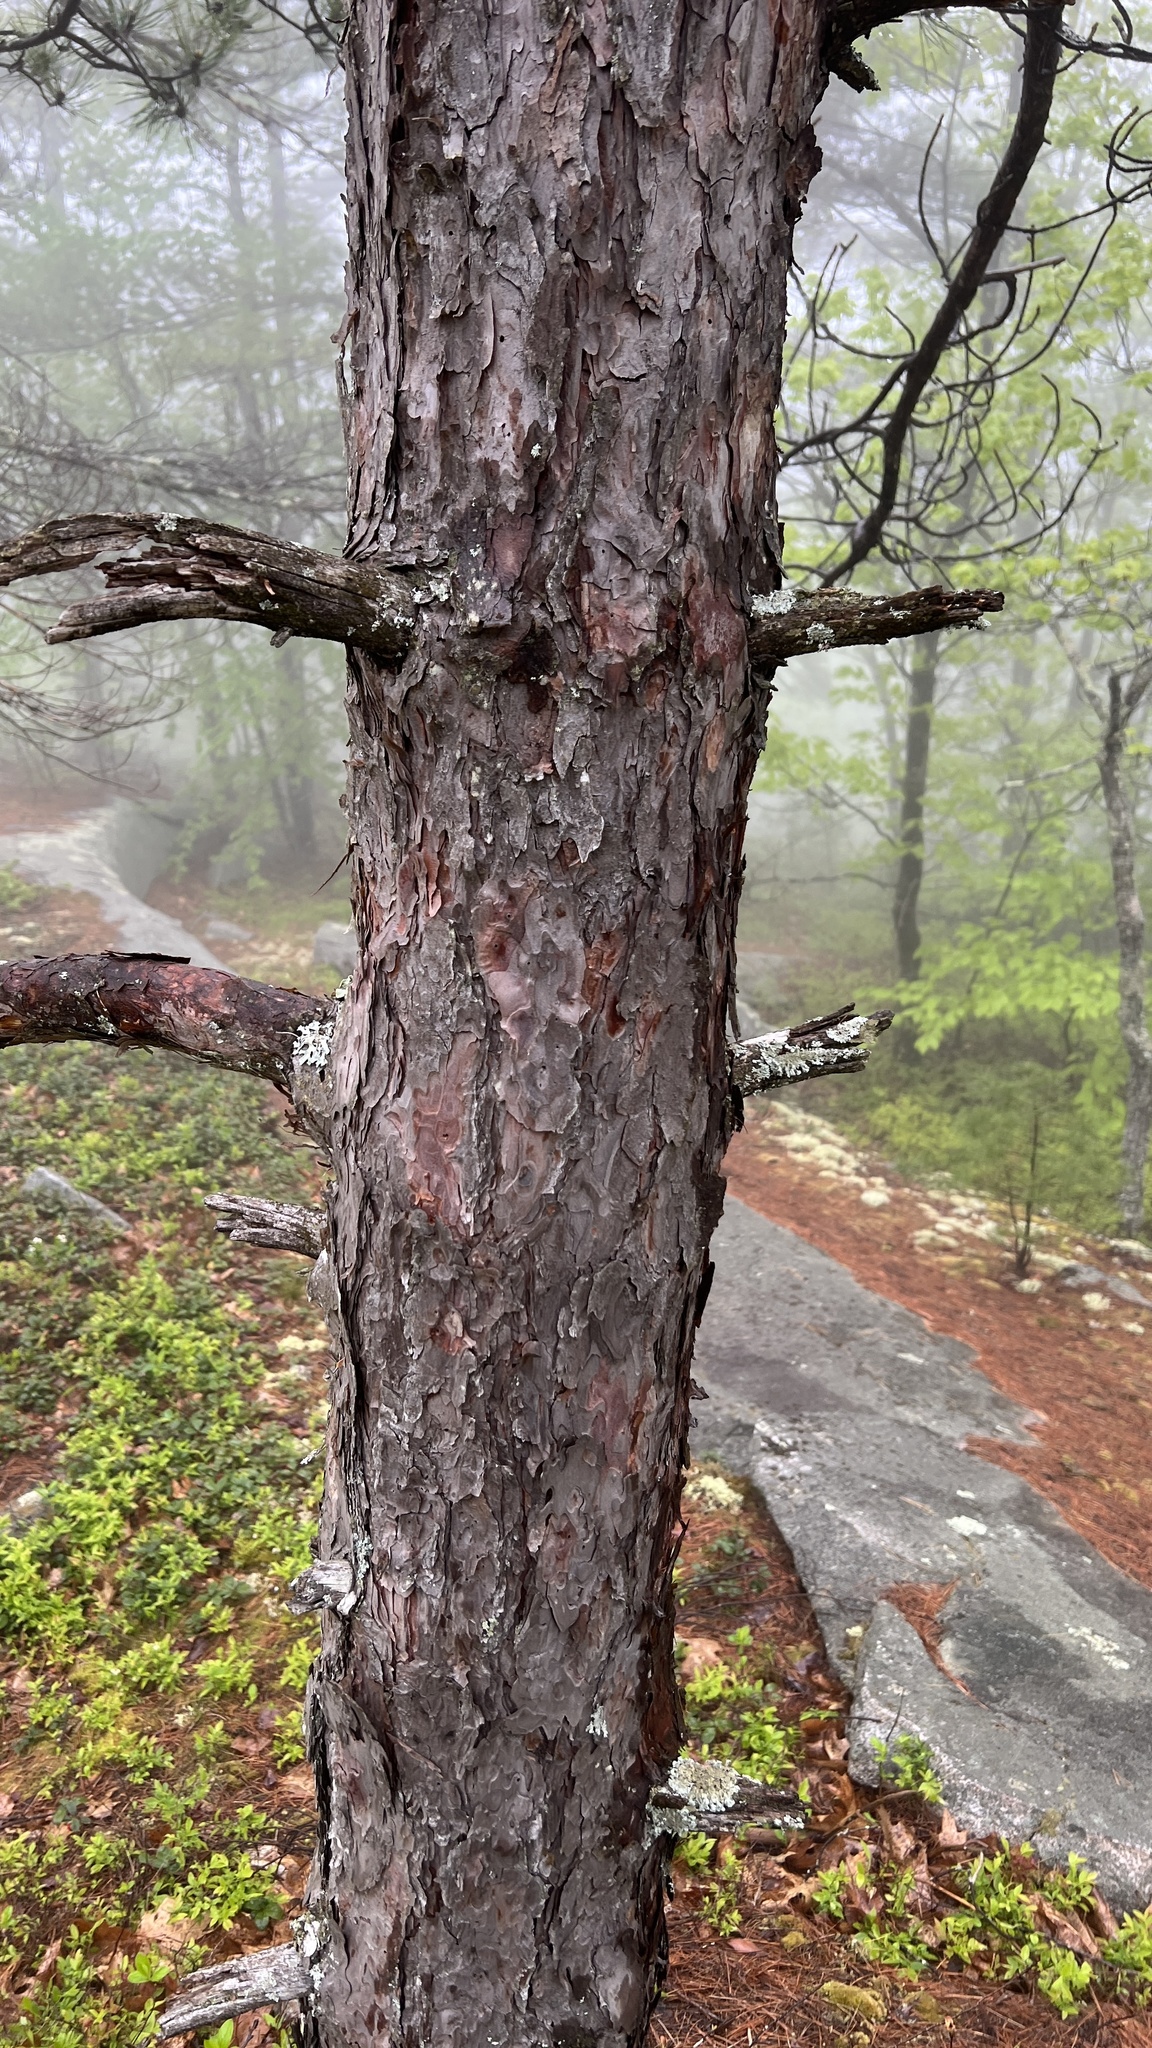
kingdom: Plantae
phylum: Tracheophyta
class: Pinopsida
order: Pinales
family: Pinaceae
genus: Pinus
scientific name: Pinus rigida
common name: Pitch pine
